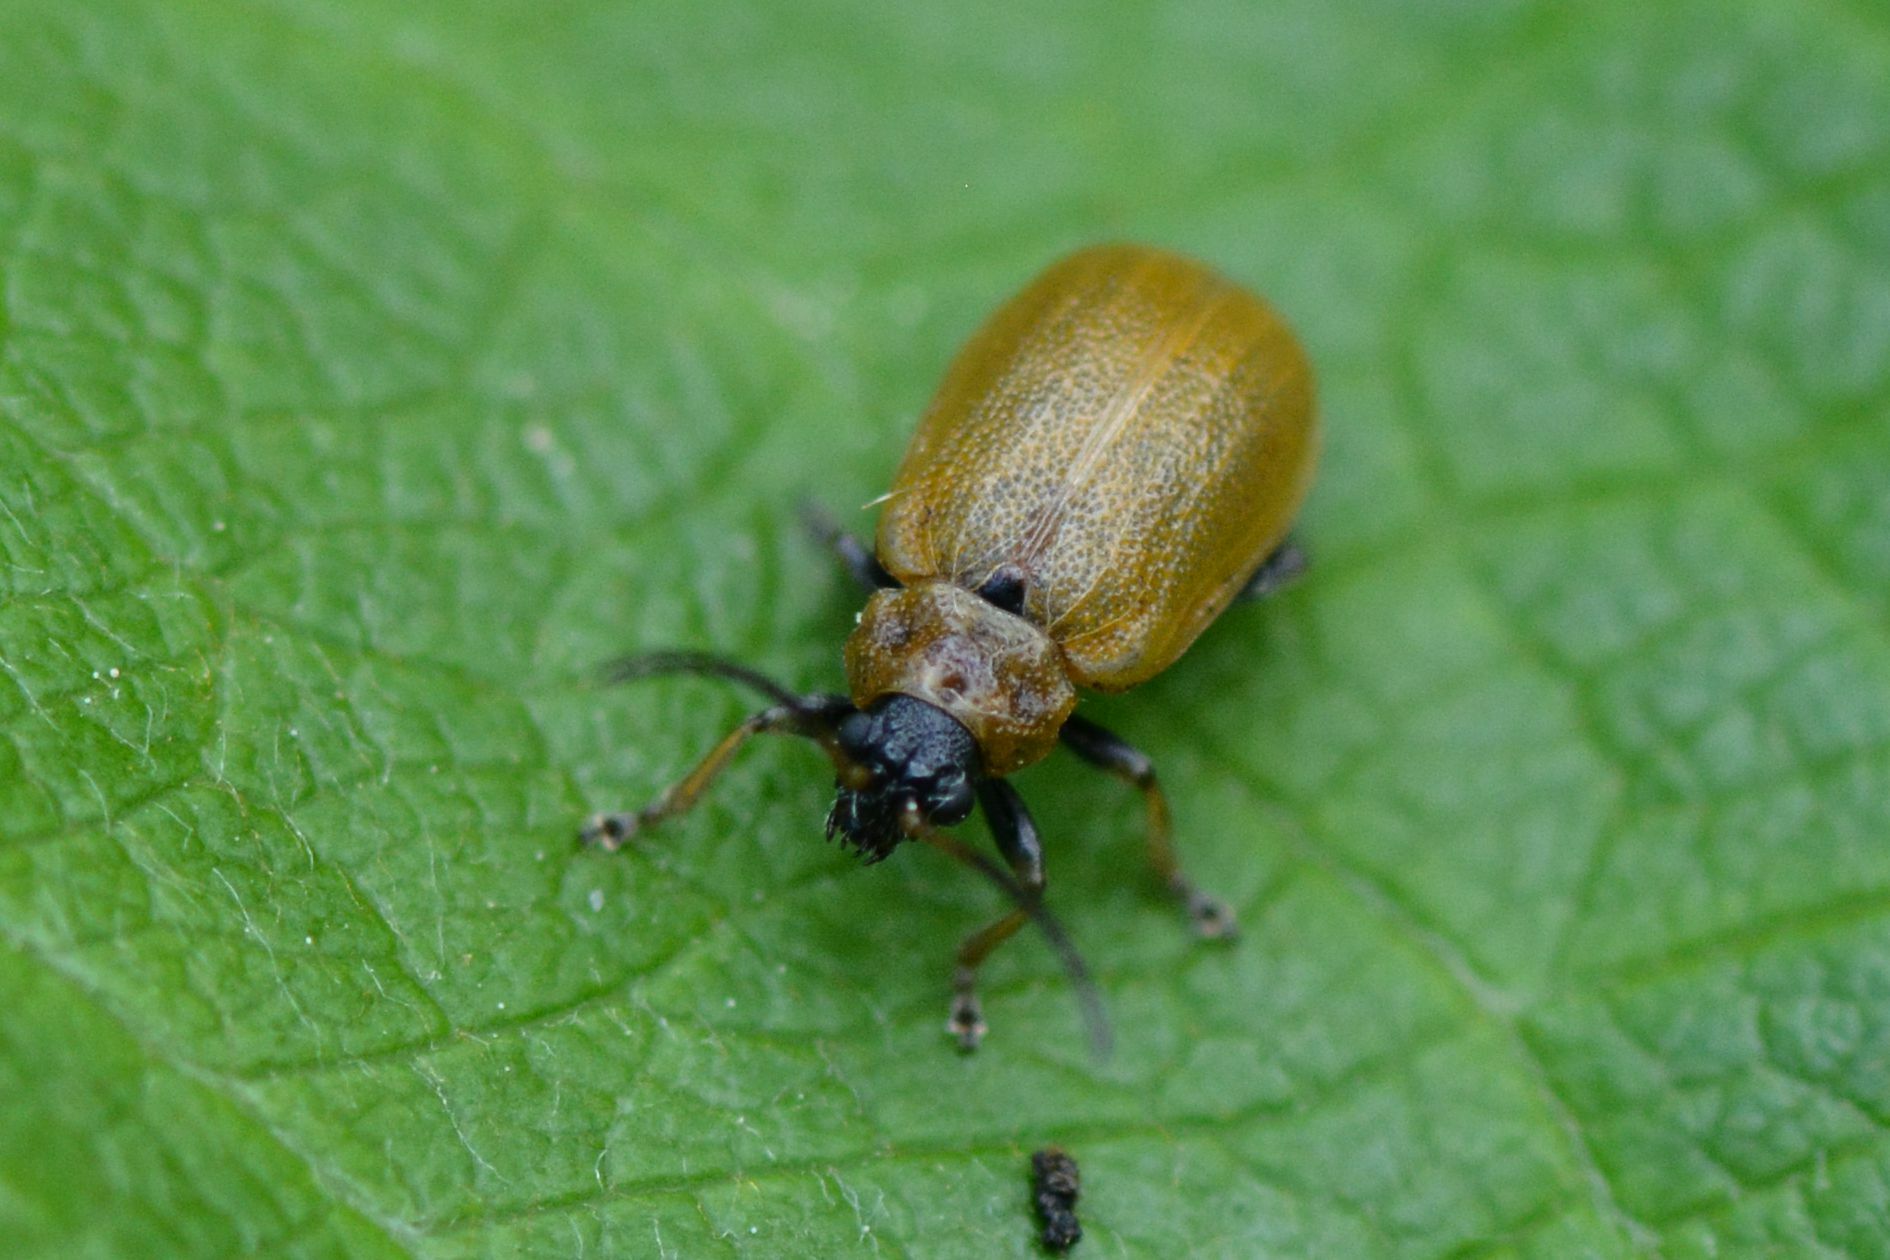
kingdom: Animalia
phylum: Arthropoda
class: Insecta
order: Coleoptera
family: Chrysomelidae
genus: Lochmaea
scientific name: Lochmaea caprea
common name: Willow leaf beetle
